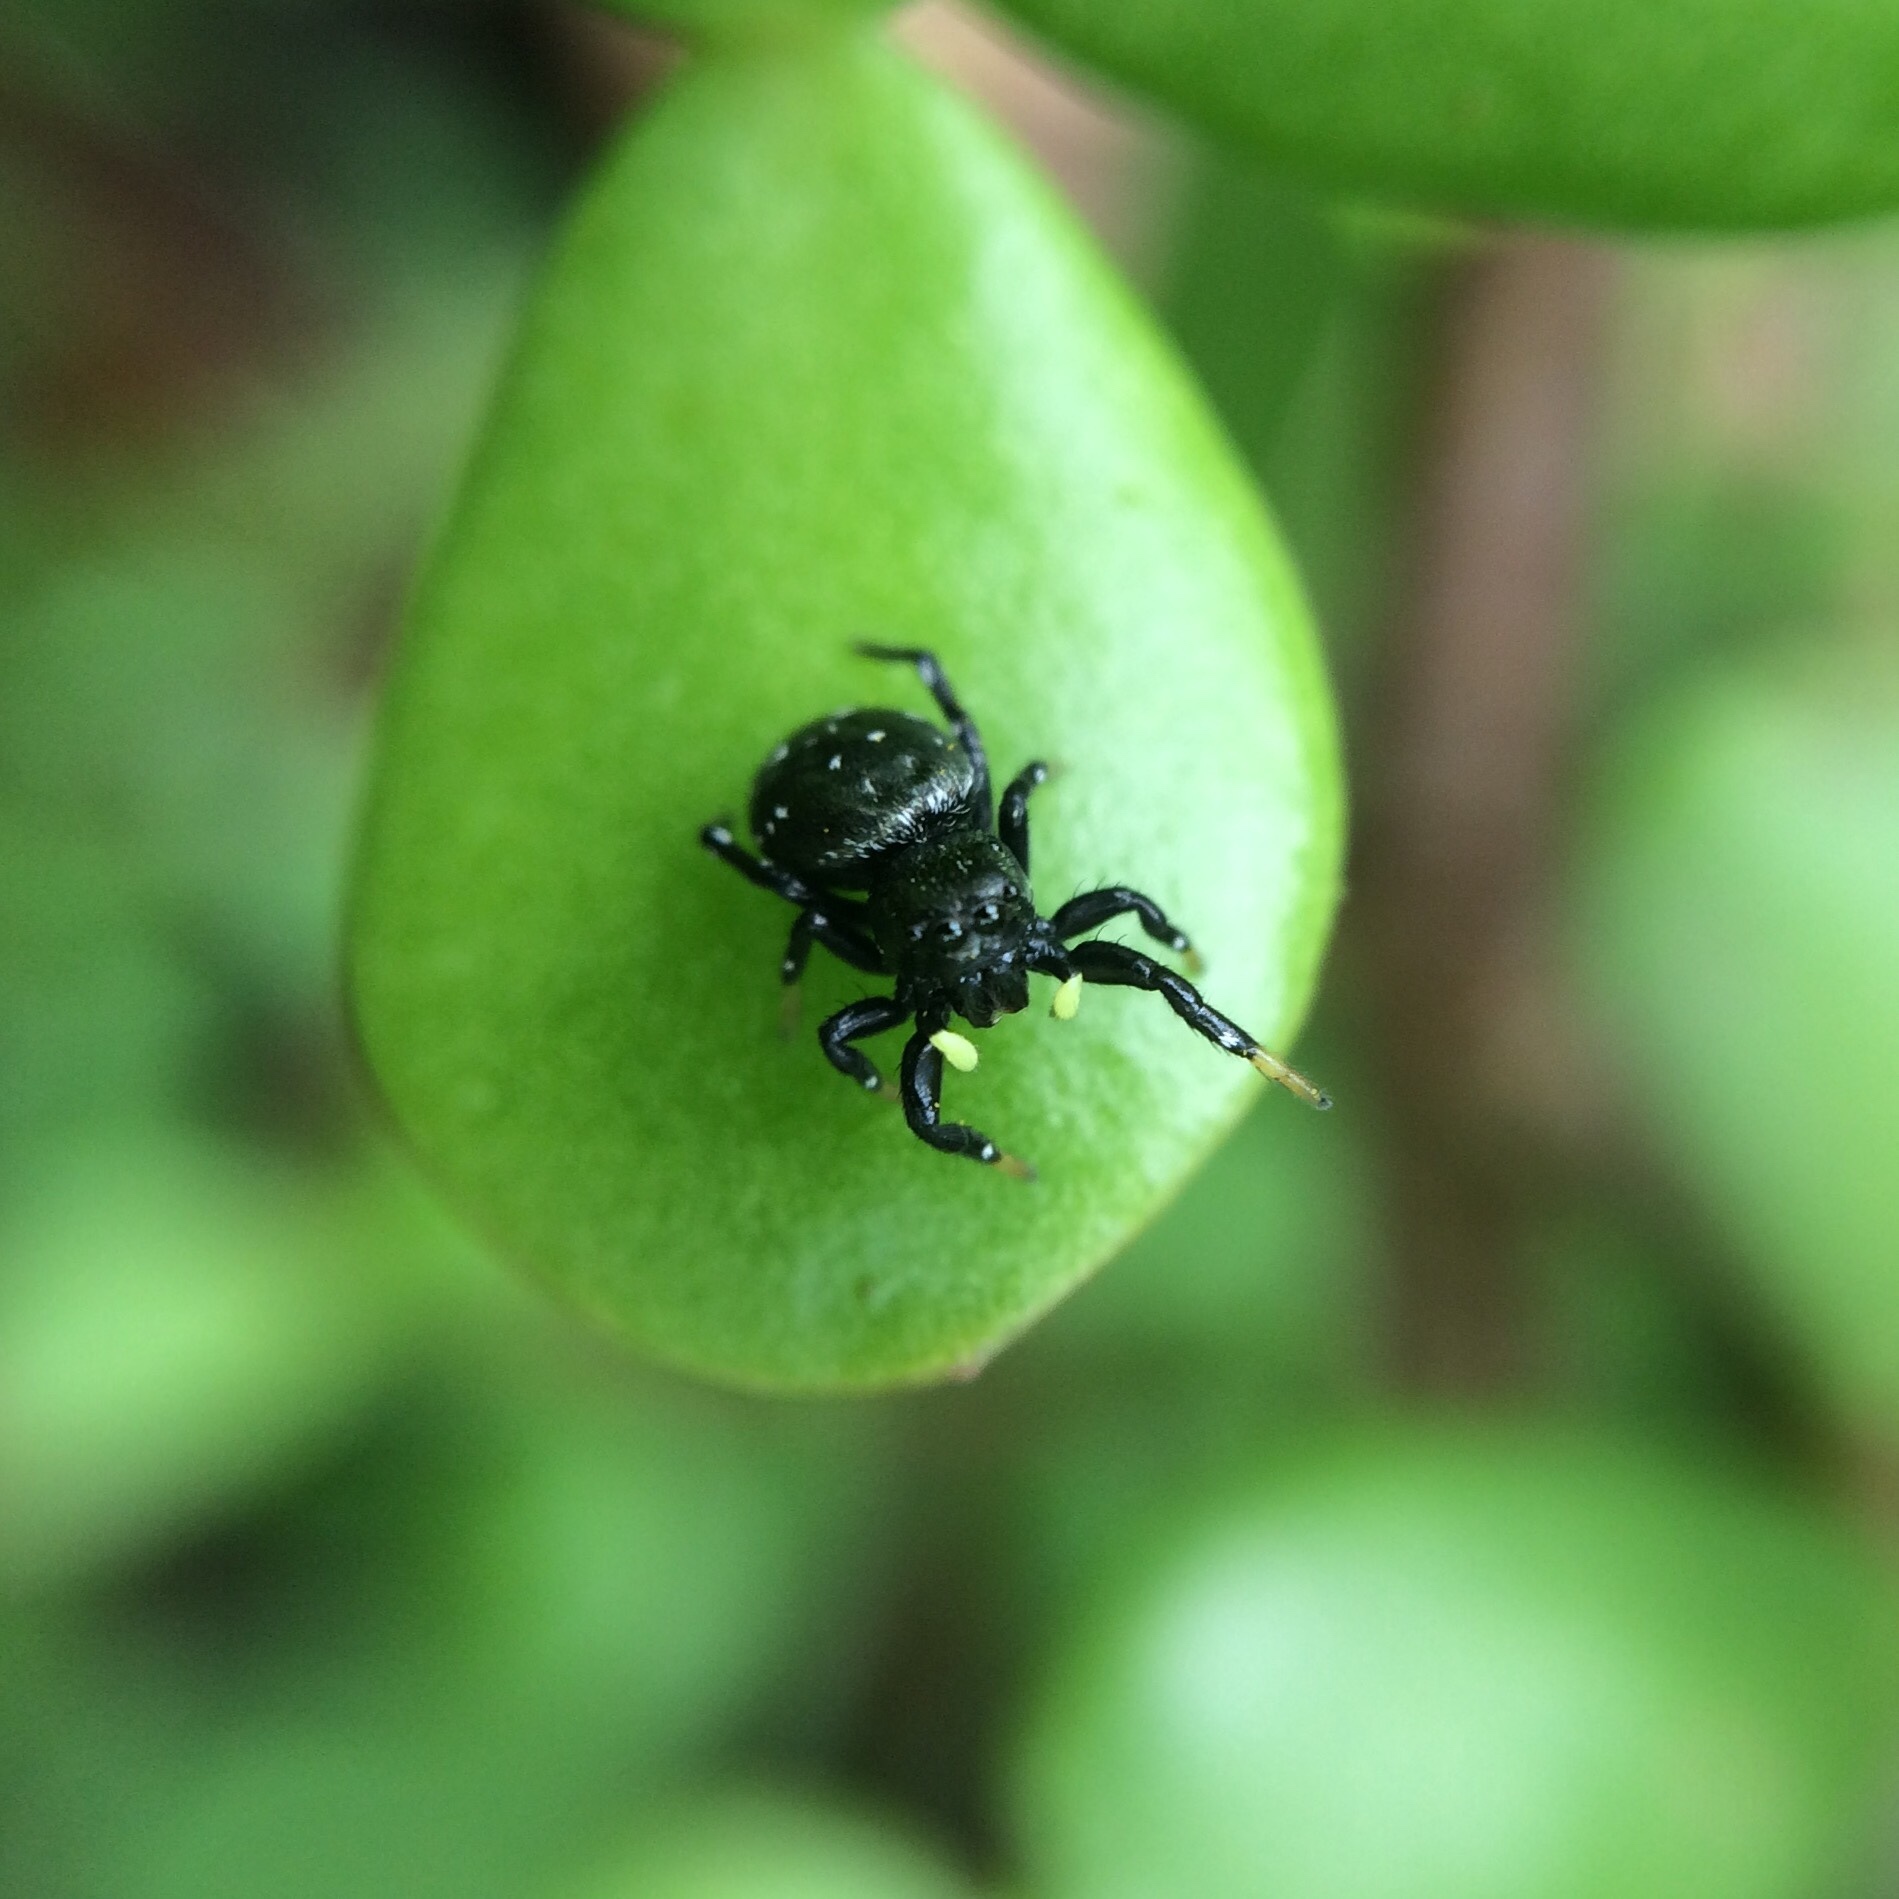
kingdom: Animalia
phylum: Arthropoda
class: Arachnida
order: Araneae
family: Salticidae
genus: Heliophanus
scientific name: Heliophanus
